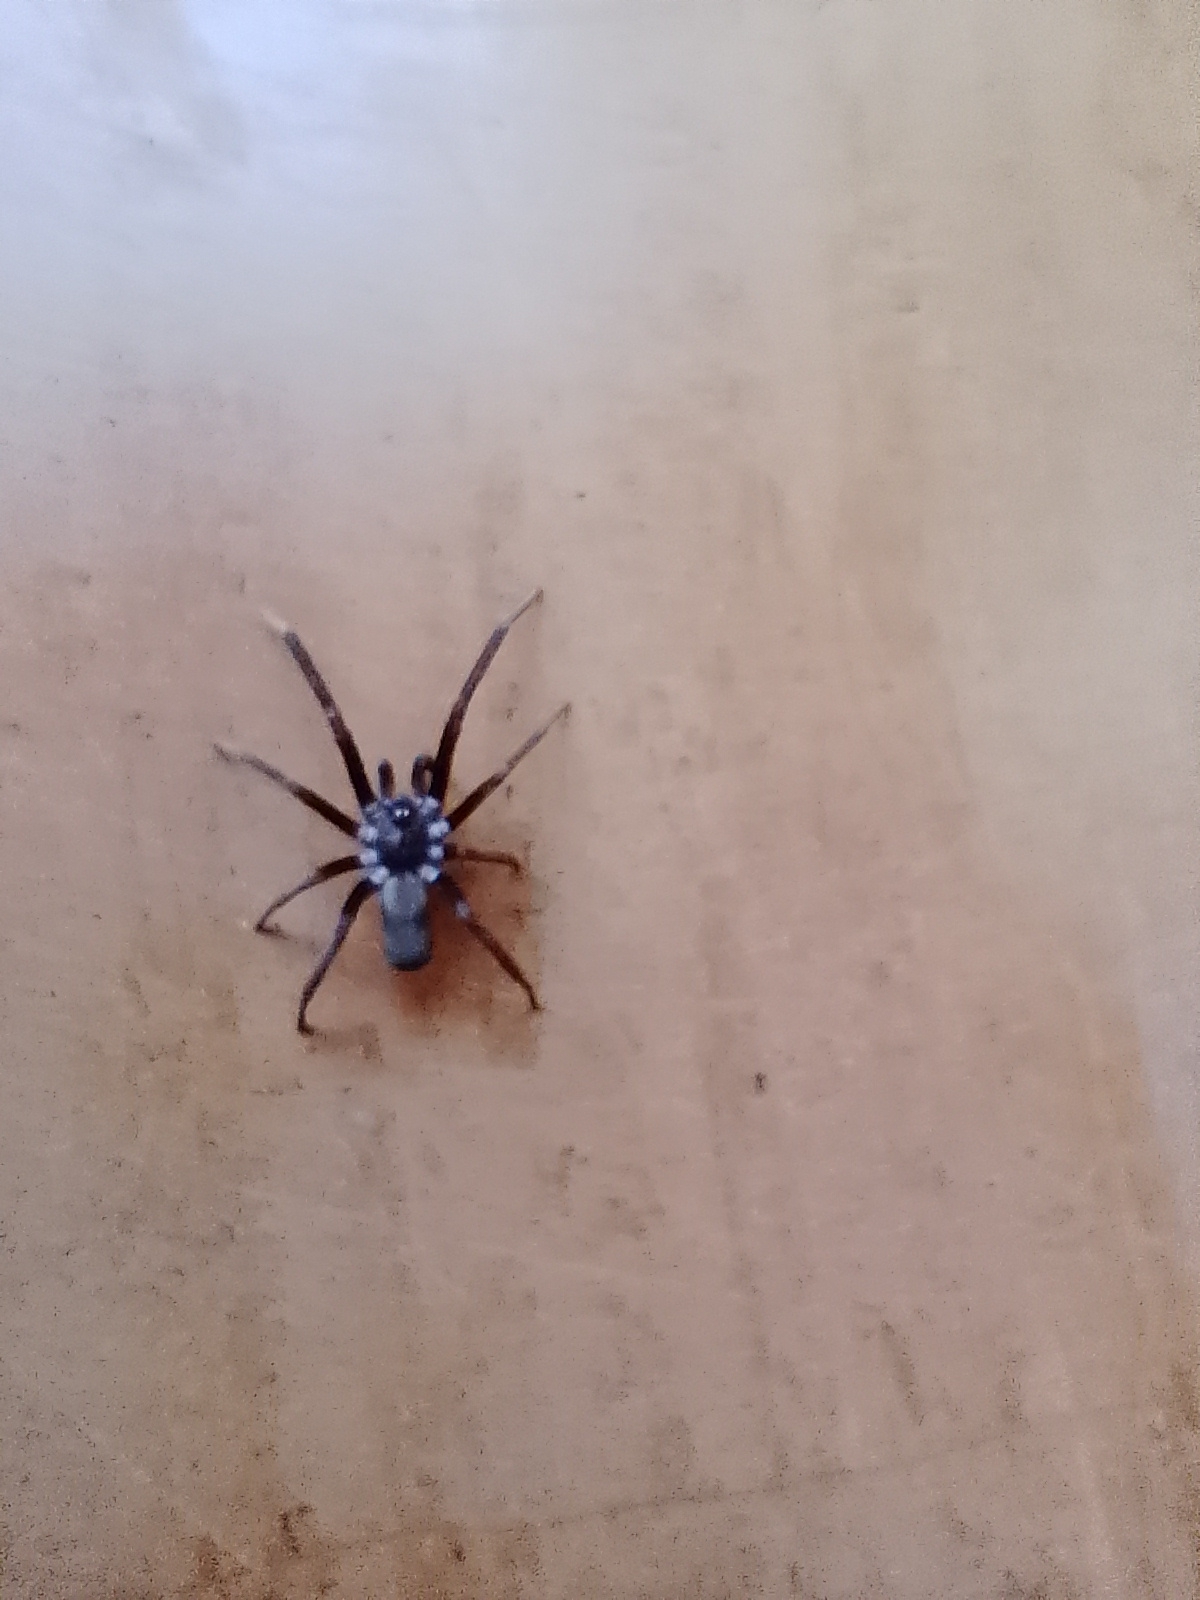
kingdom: Animalia
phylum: Arthropoda
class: Arachnida
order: Araneae
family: Filistatidae
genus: Kukulcania
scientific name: Kukulcania hibernalis
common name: Crevice weaver
